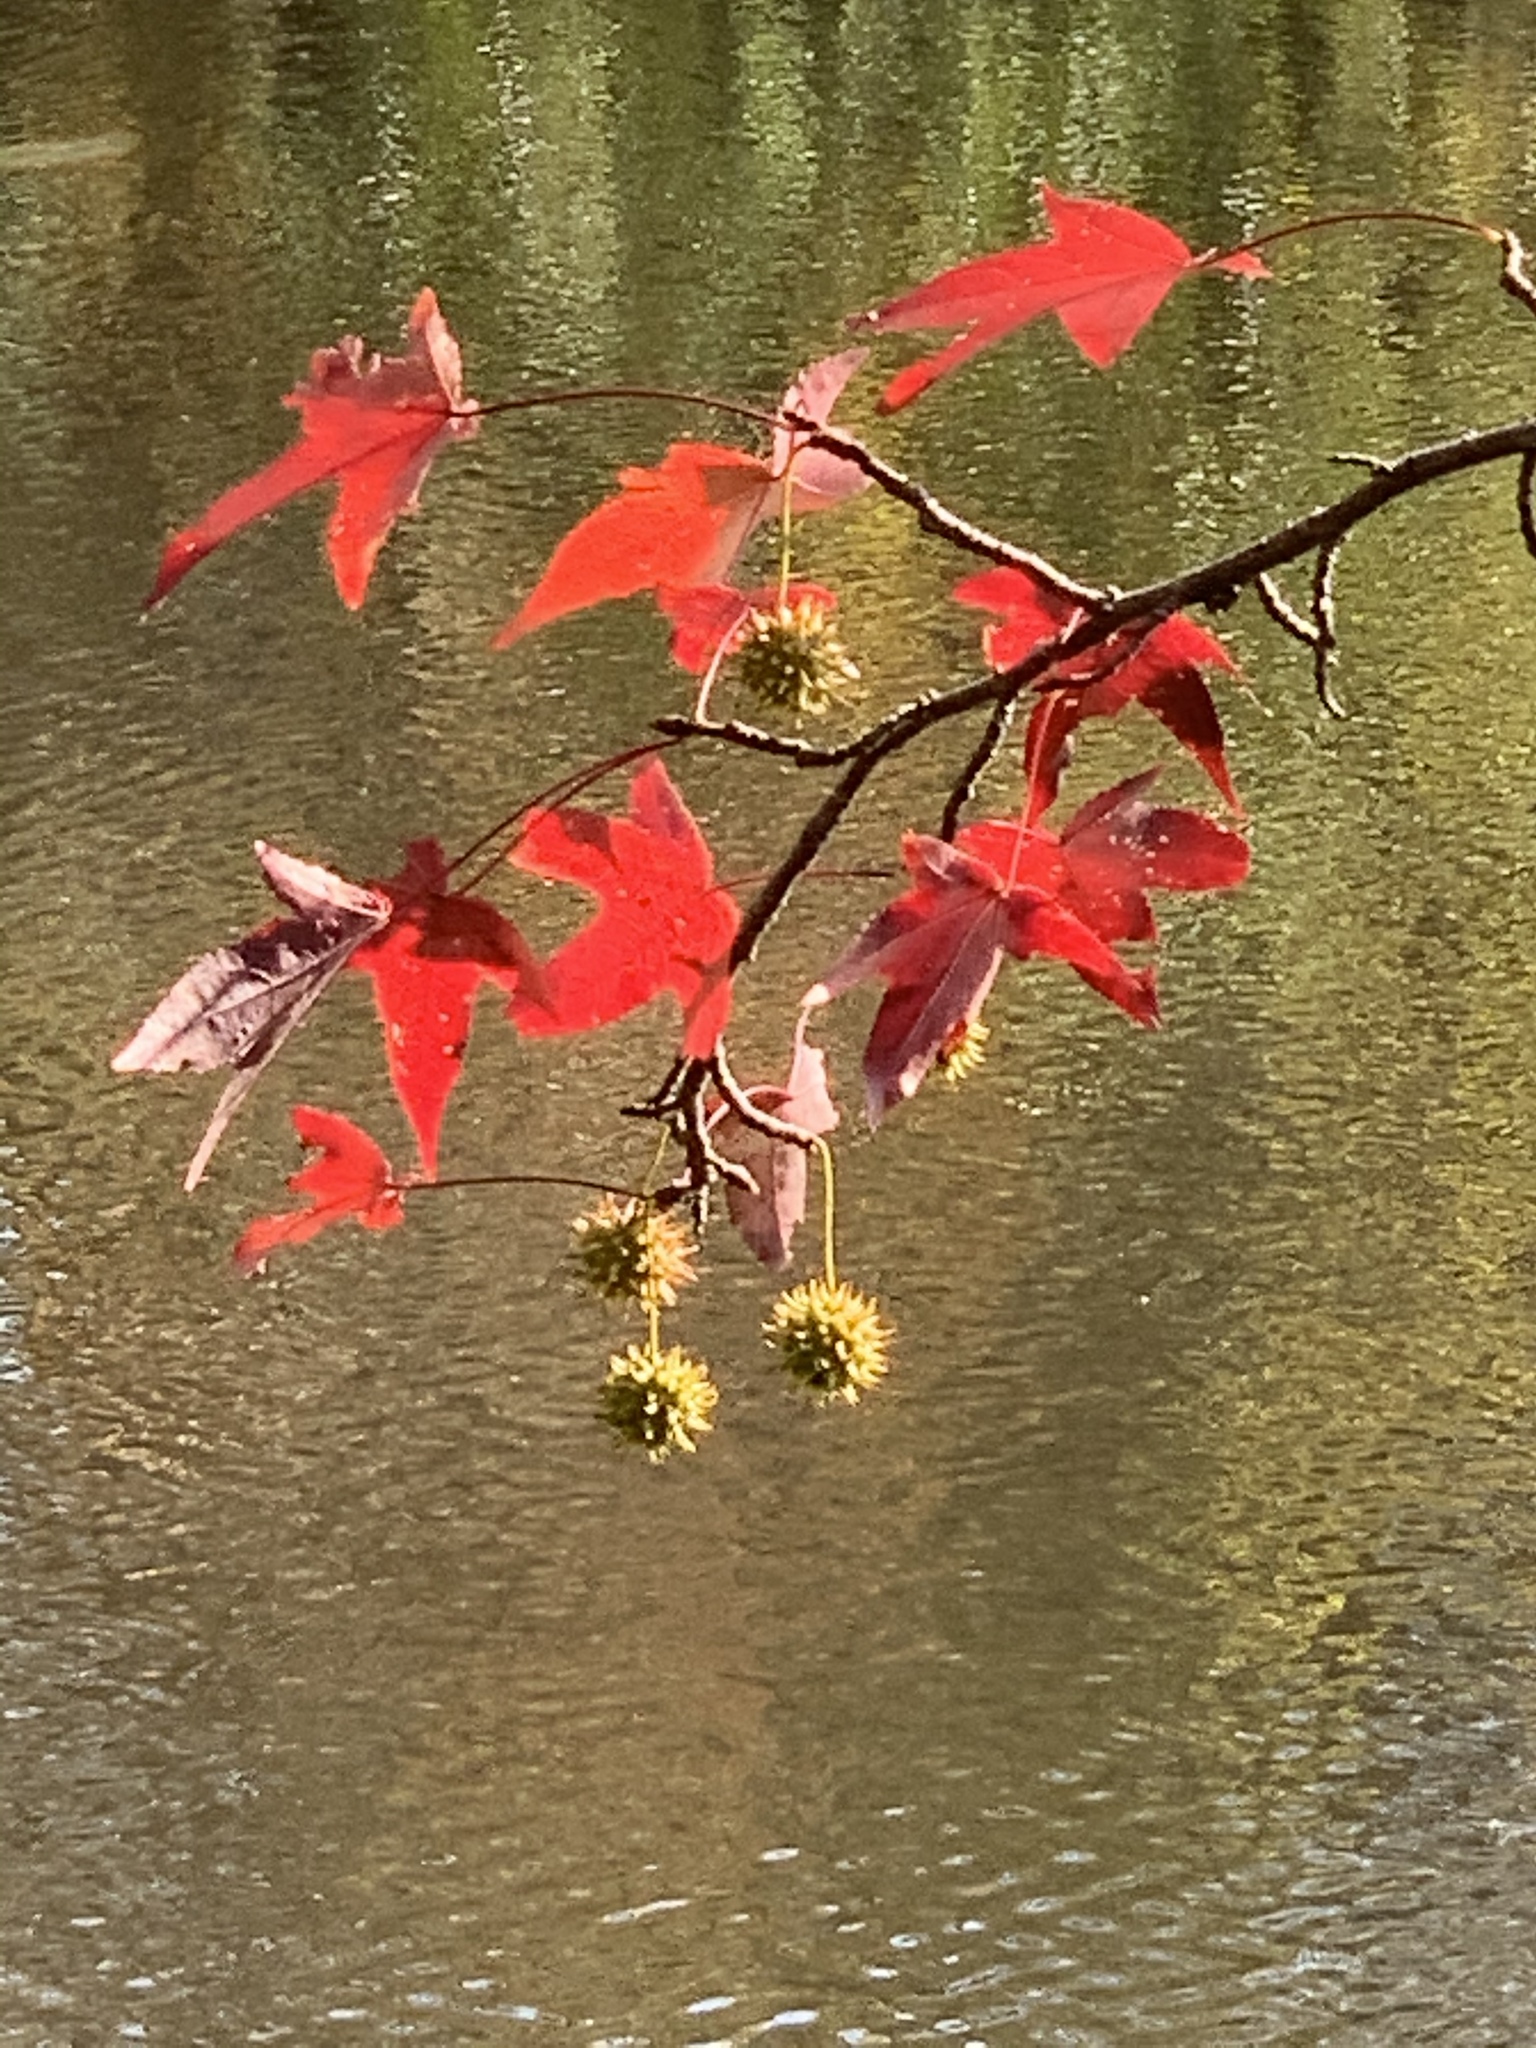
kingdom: Plantae
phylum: Tracheophyta
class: Magnoliopsida
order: Saxifragales
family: Altingiaceae
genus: Liquidambar
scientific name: Liquidambar styraciflua
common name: Sweet gum
